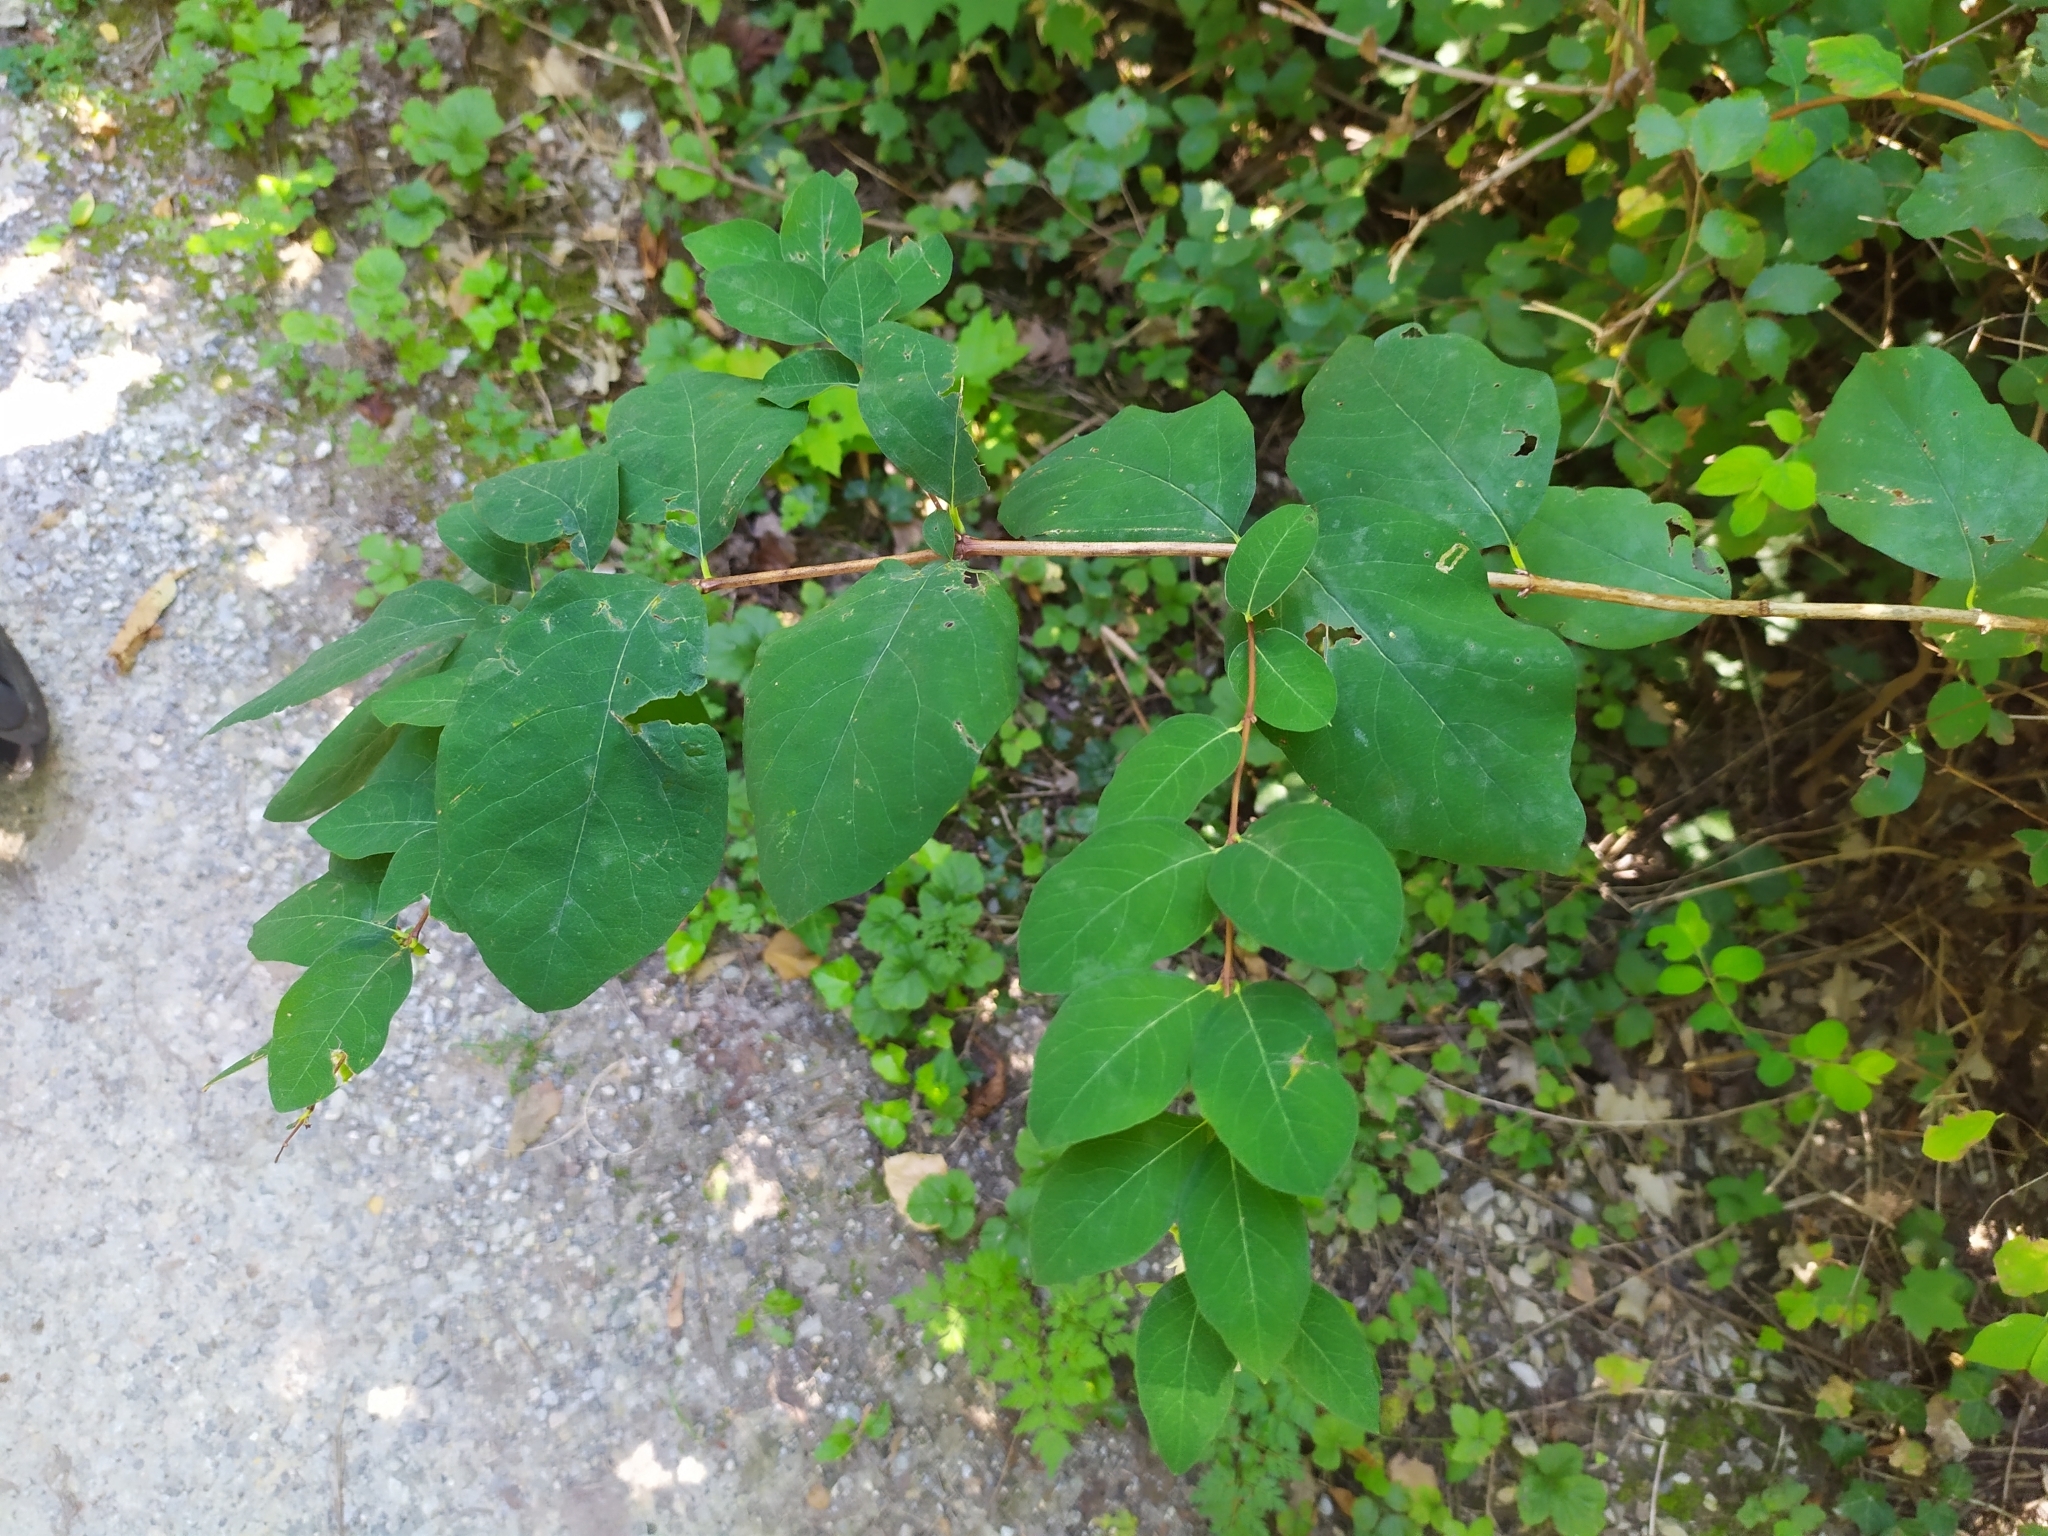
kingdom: Plantae
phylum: Tracheophyta
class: Magnoliopsida
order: Dipsacales
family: Caprifoliaceae
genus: Symphoricarpos
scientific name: Symphoricarpos albus
